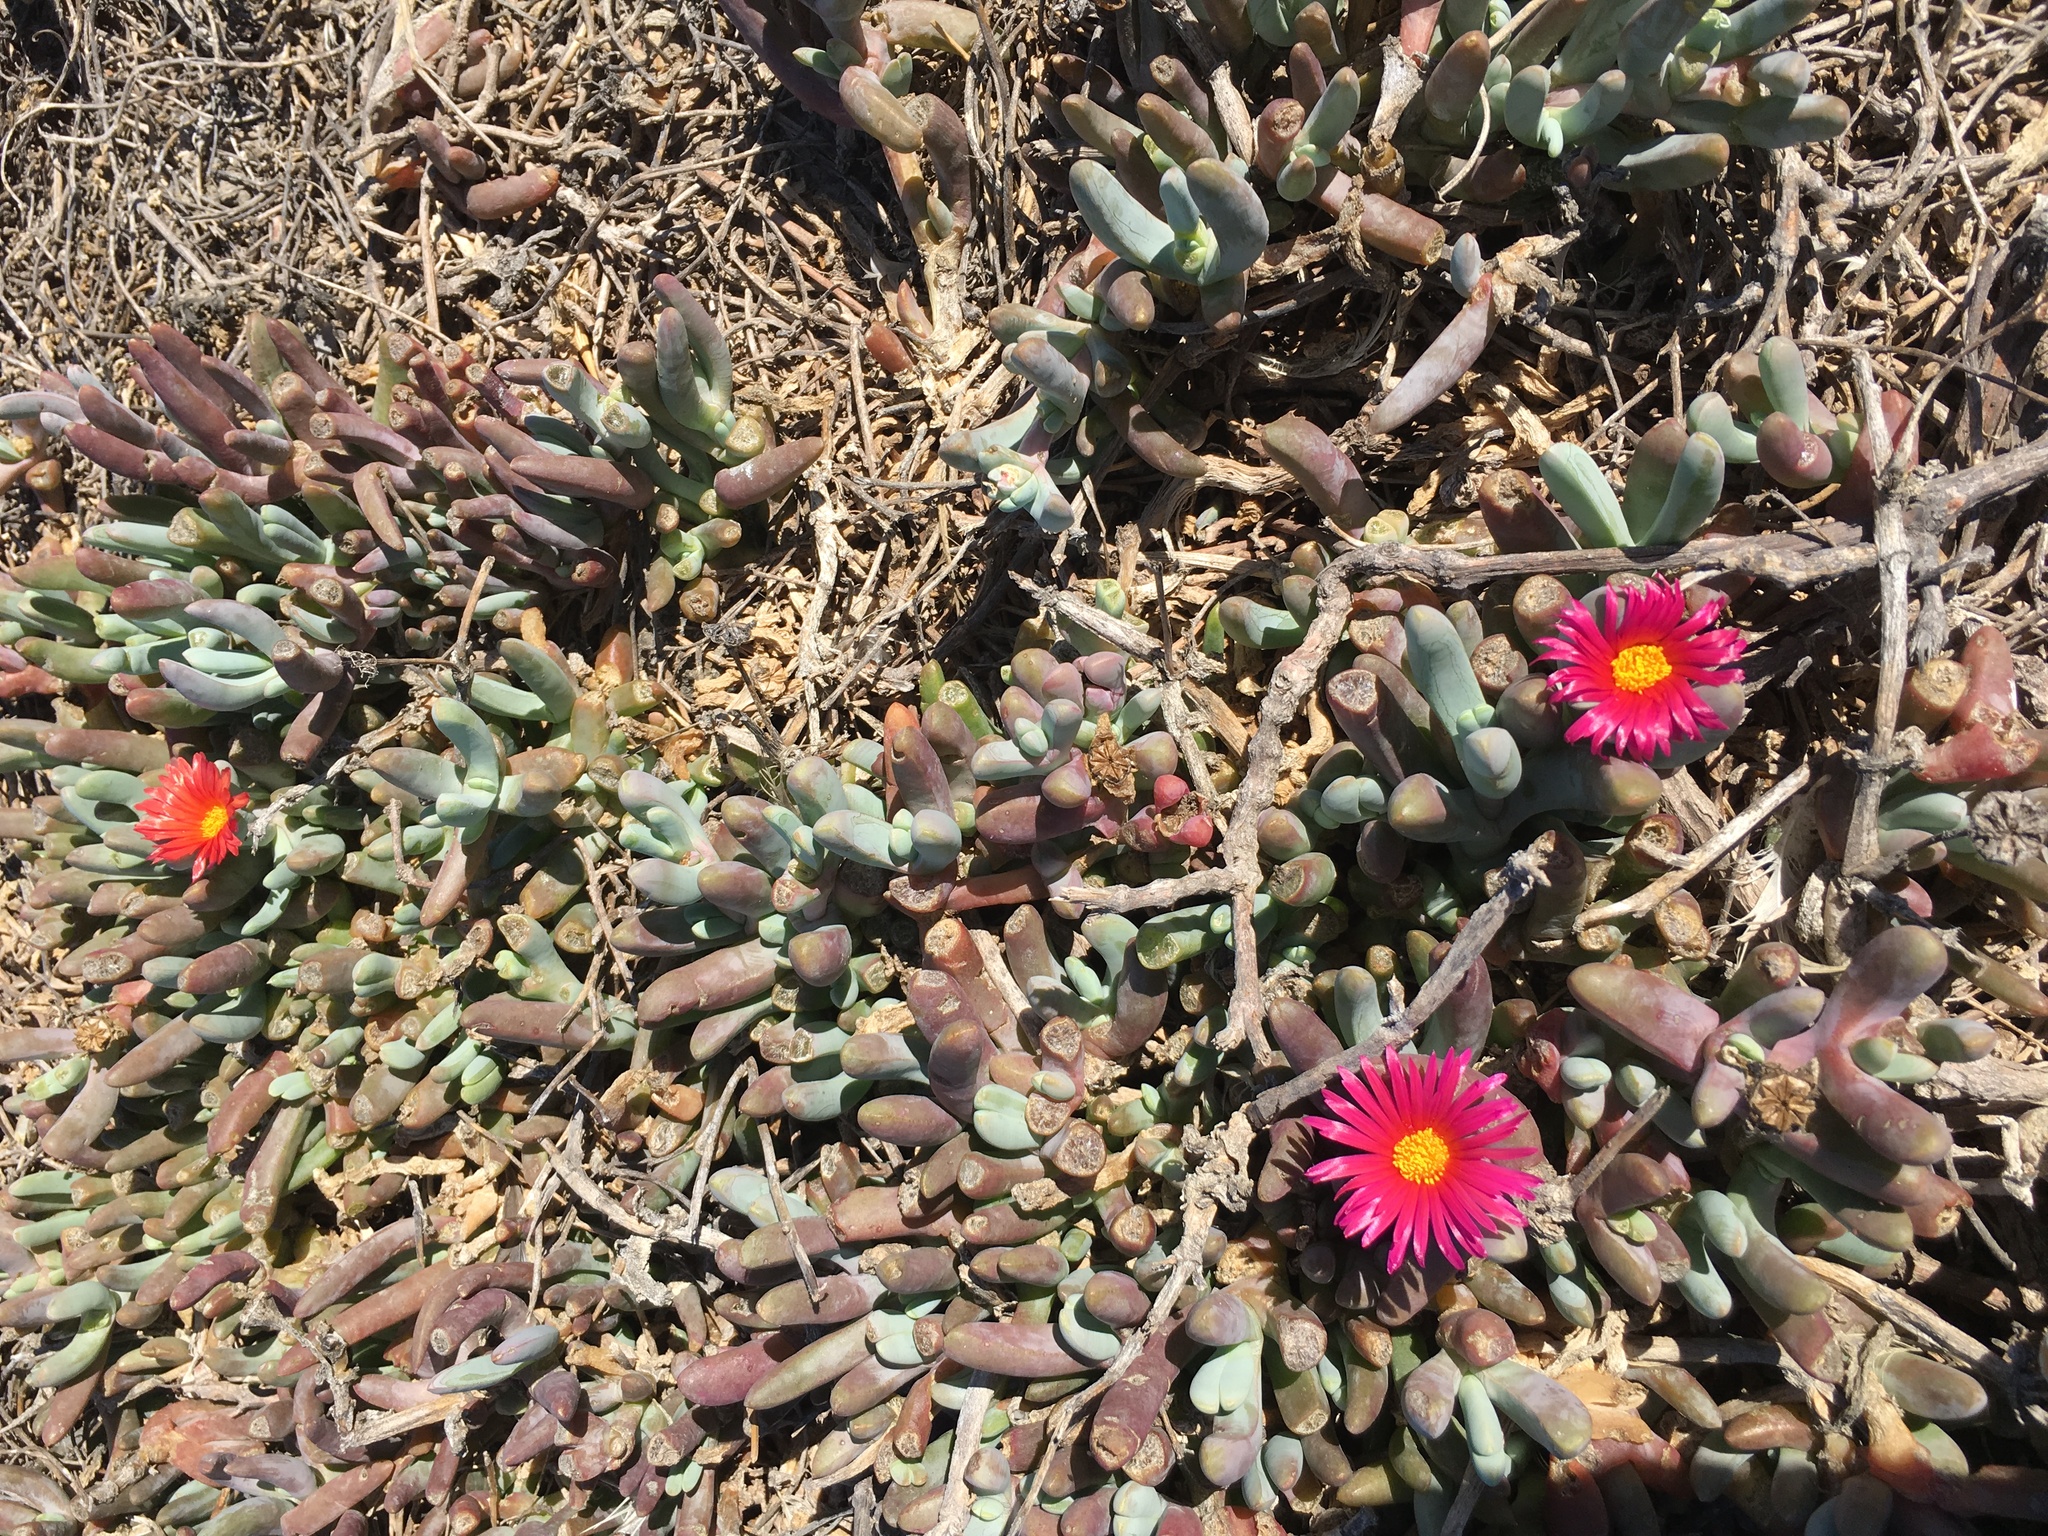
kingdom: Plantae
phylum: Tracheophyta
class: Magnoliopsida
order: Caryophyllales
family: Aizoaceae
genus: Malephora
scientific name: Malephora crocea
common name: Coppery mesemb
